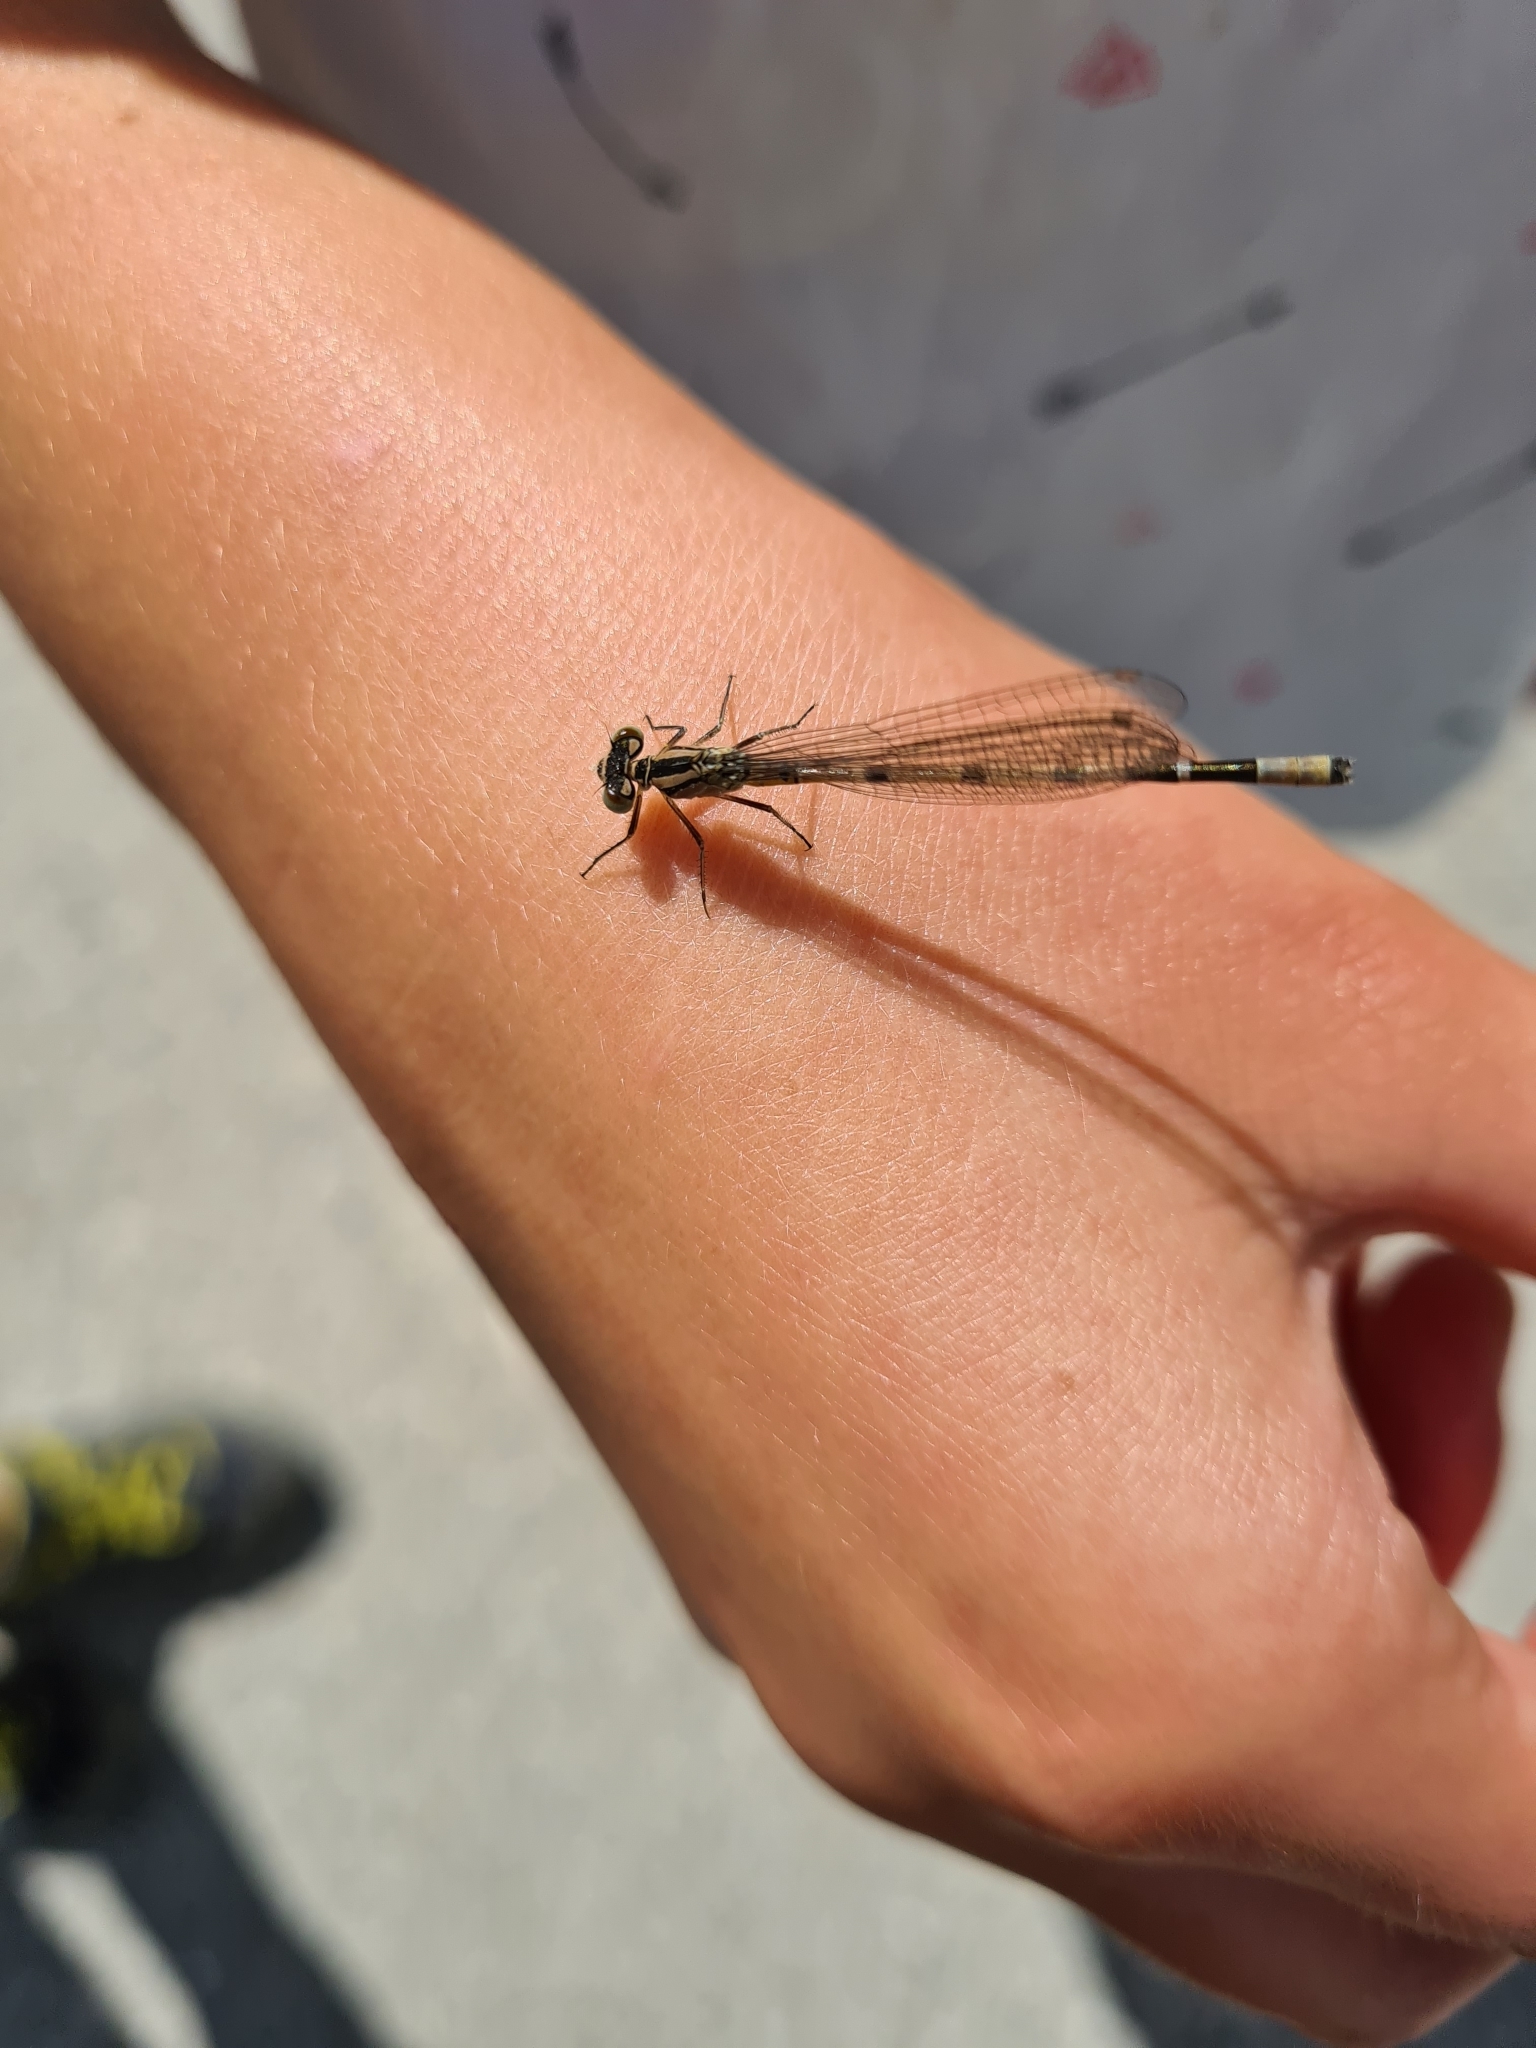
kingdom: Animalia
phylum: Arthropoda
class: Insecta
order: Odonata
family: Coenagrionidae
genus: Enallagma
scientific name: Enallagma cyathigerum
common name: Common blue damselfly
